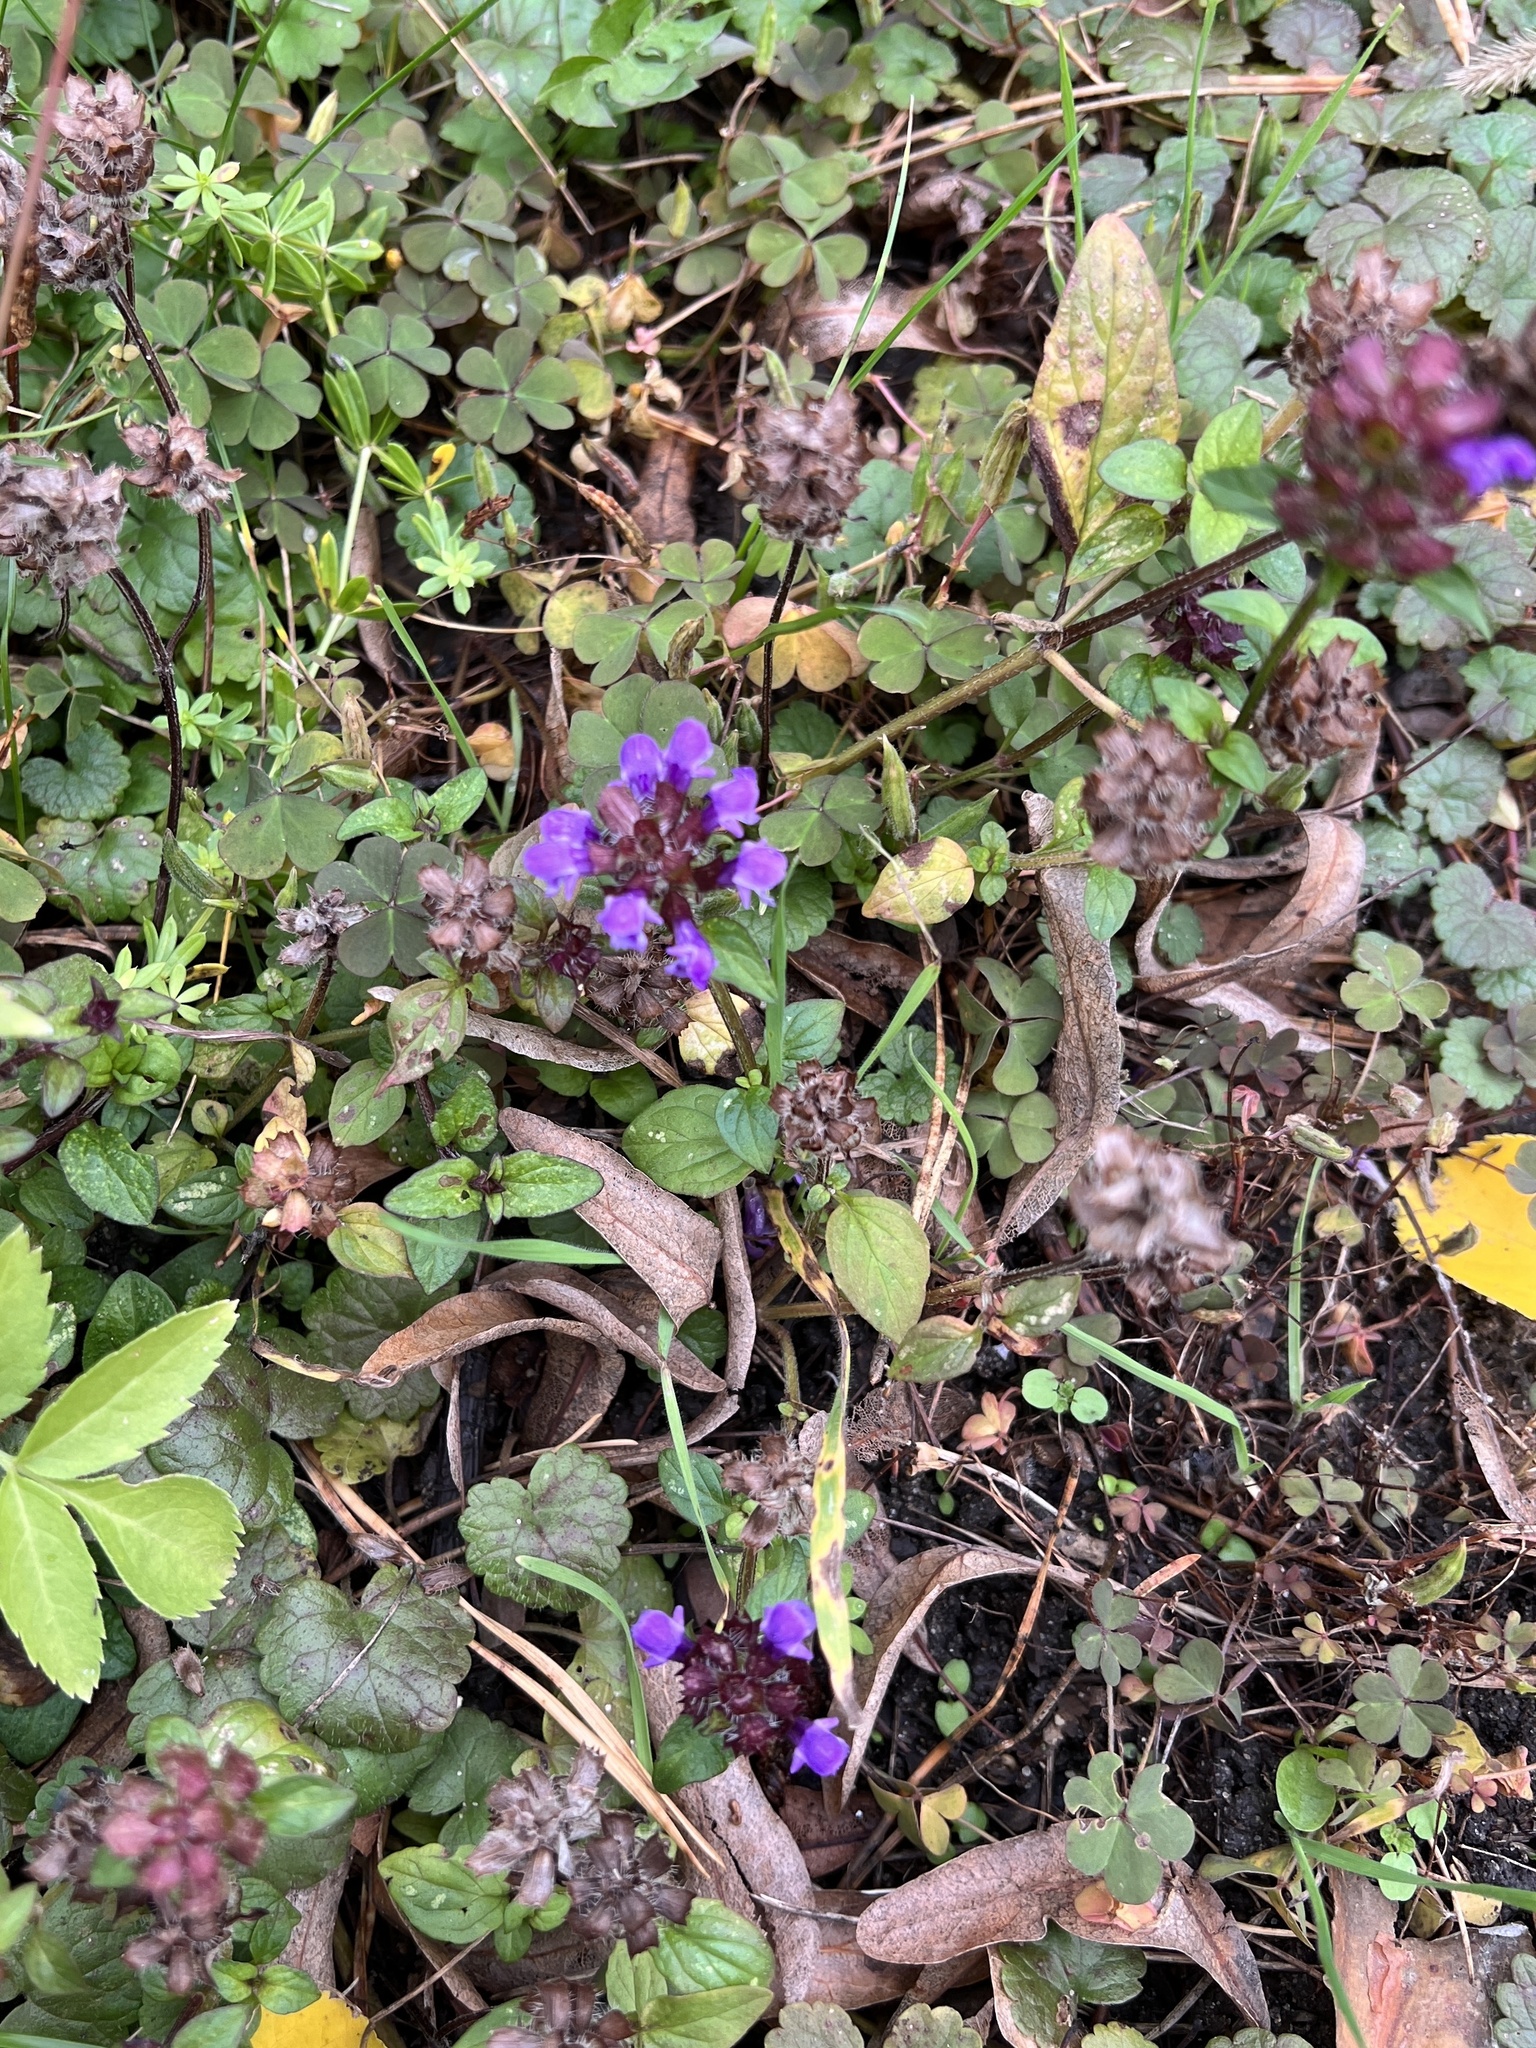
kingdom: Plantae
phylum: Tracheophyta
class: Magnoliopsida
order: Lamiales
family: Lamiaceae
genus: Prunella
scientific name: Prunella vulgaris
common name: Heal-all
